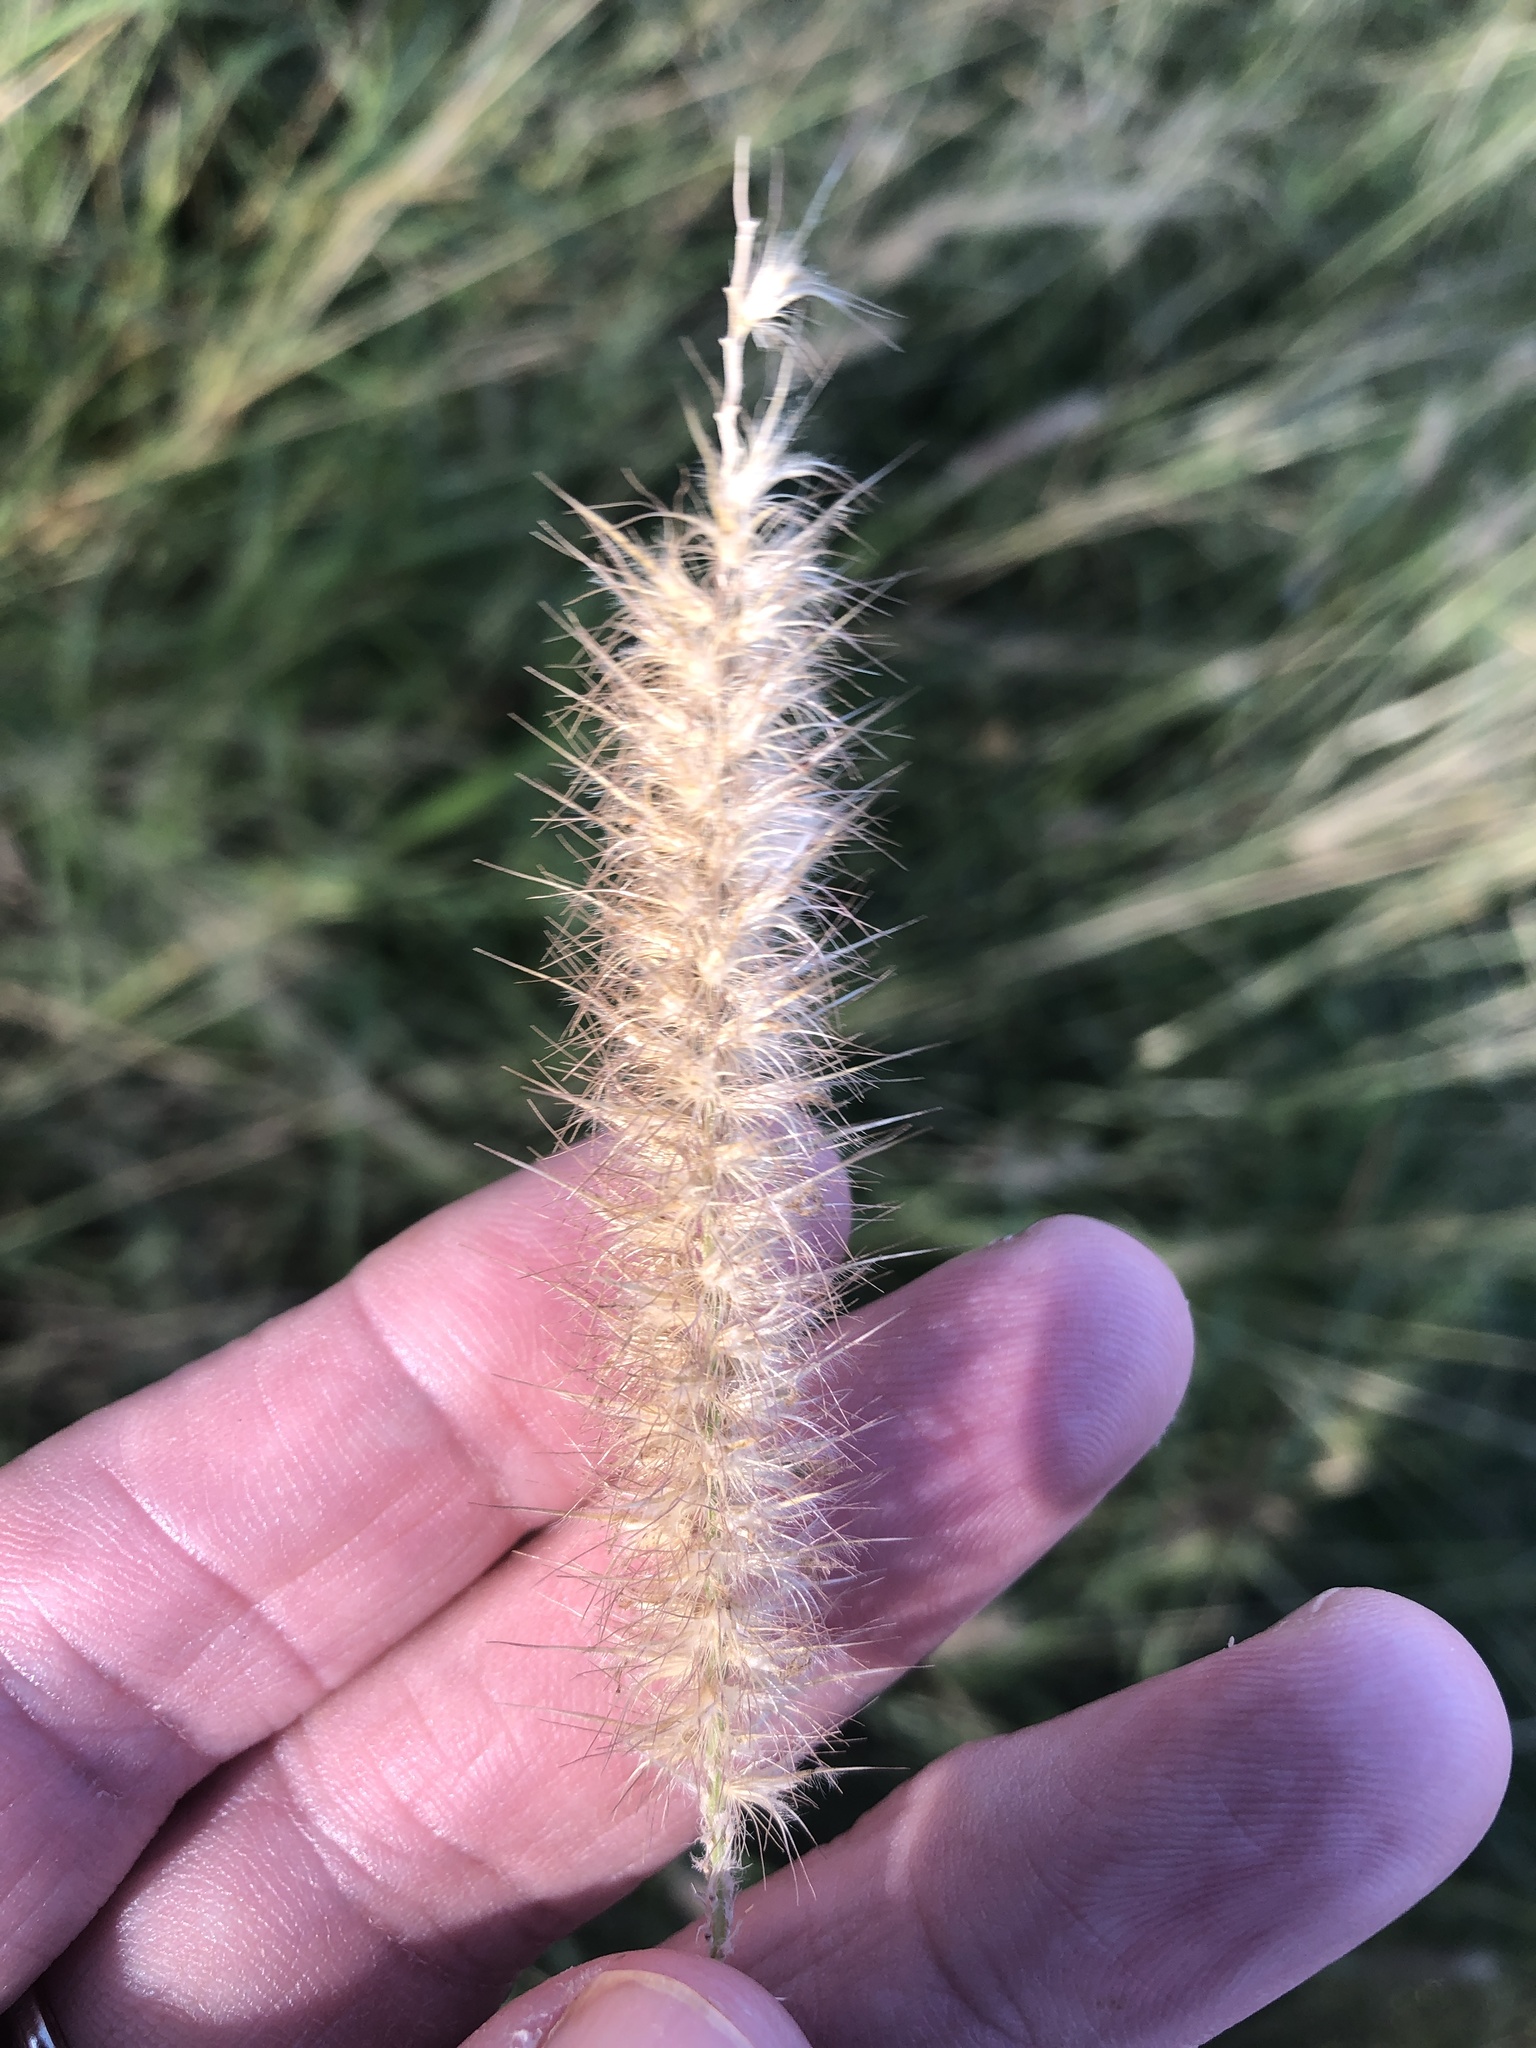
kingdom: Plantae
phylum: Tracheophyta
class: Liliopsida
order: Poales
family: Poaceae
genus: Cenchrus
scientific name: Cenchrus ciliaris
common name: Buffelgrass
